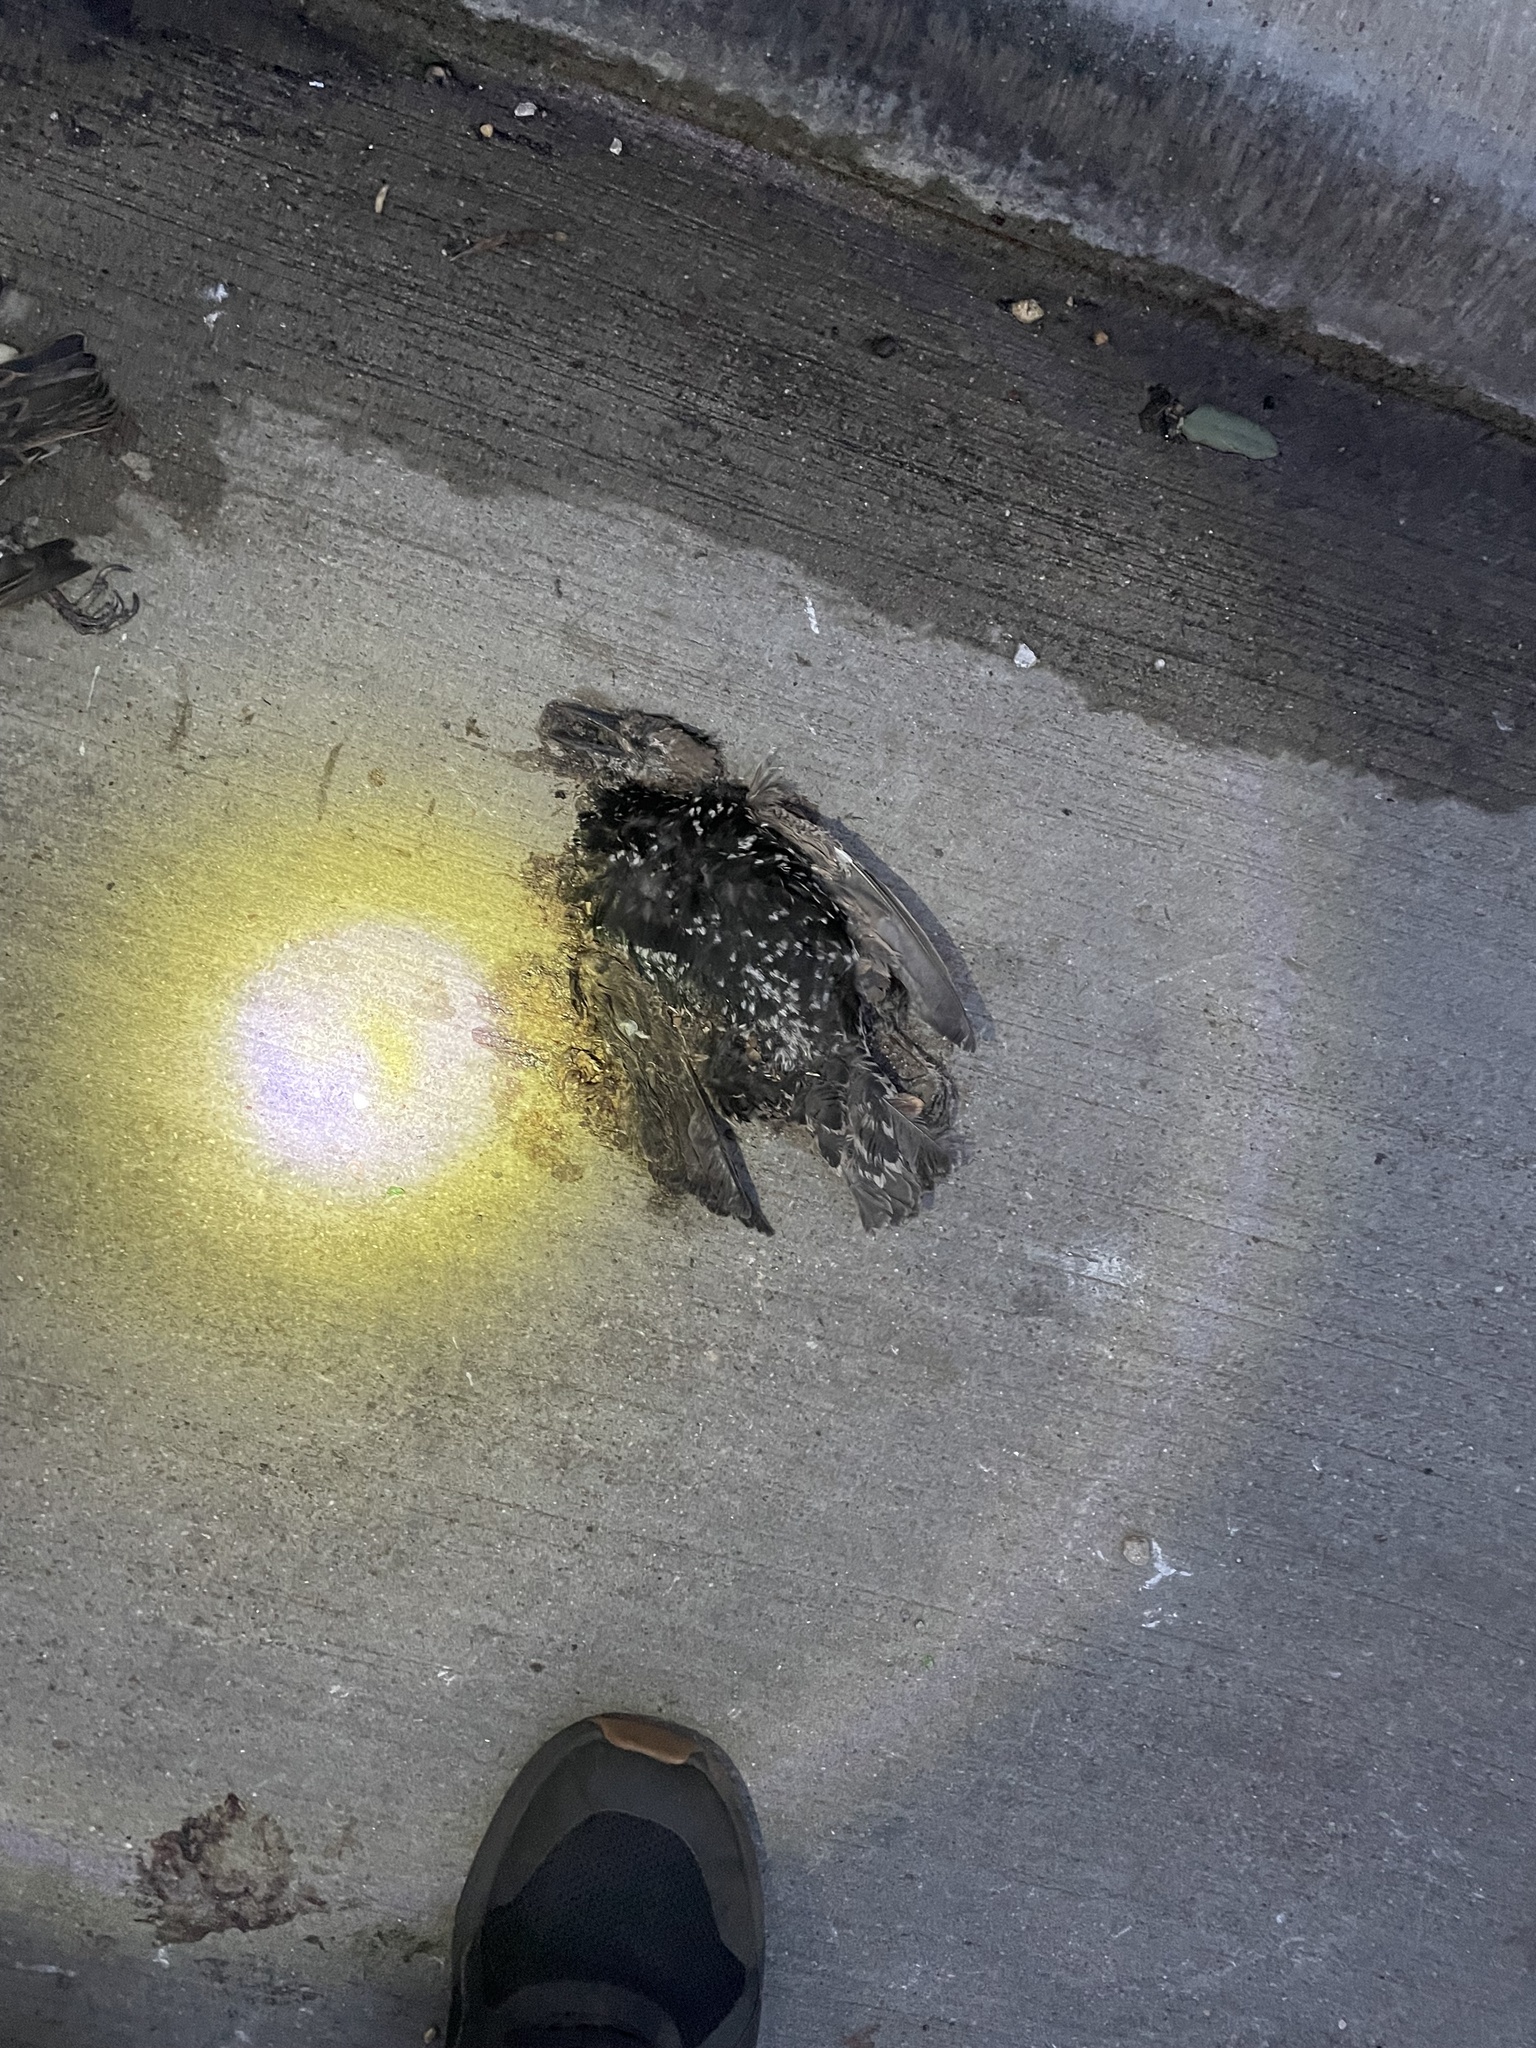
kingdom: Animalia
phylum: Chordata
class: Aves
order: Passeriformes
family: Sturnidae
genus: Sturnus
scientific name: Sturnus vulgaris
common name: Common starling
